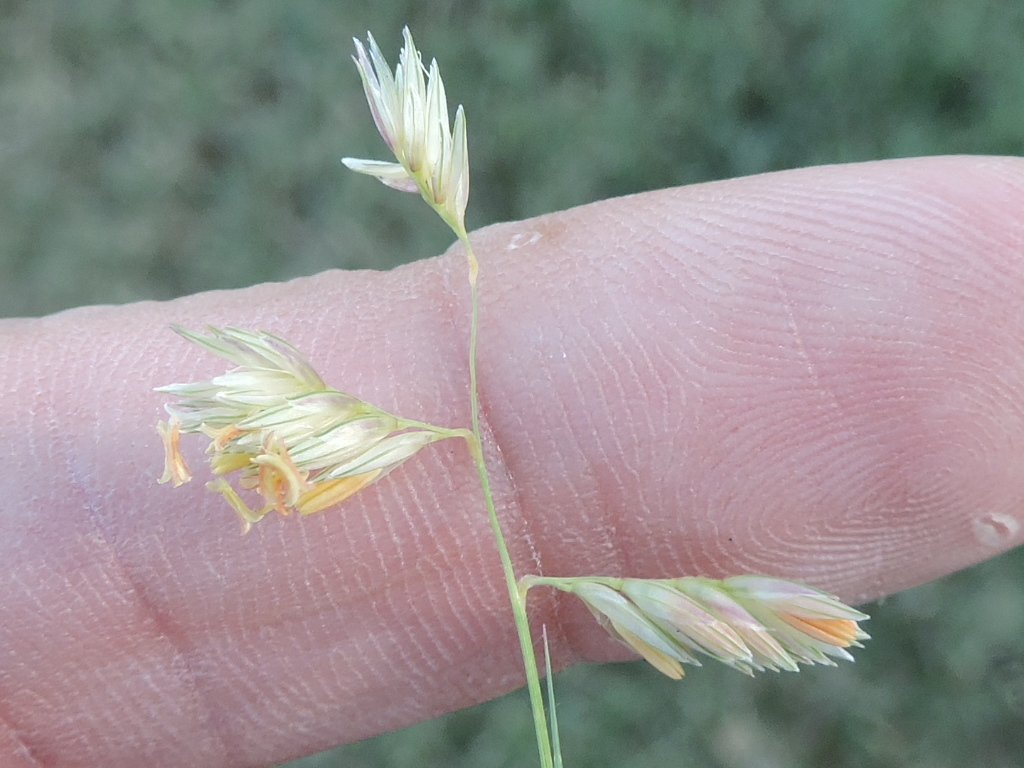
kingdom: Plantae
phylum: Tracheophyta
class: Liliopsida
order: Poales
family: Poaceae
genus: Bouteloua
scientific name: Bouteloua dactyloides
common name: Buffalo grass
